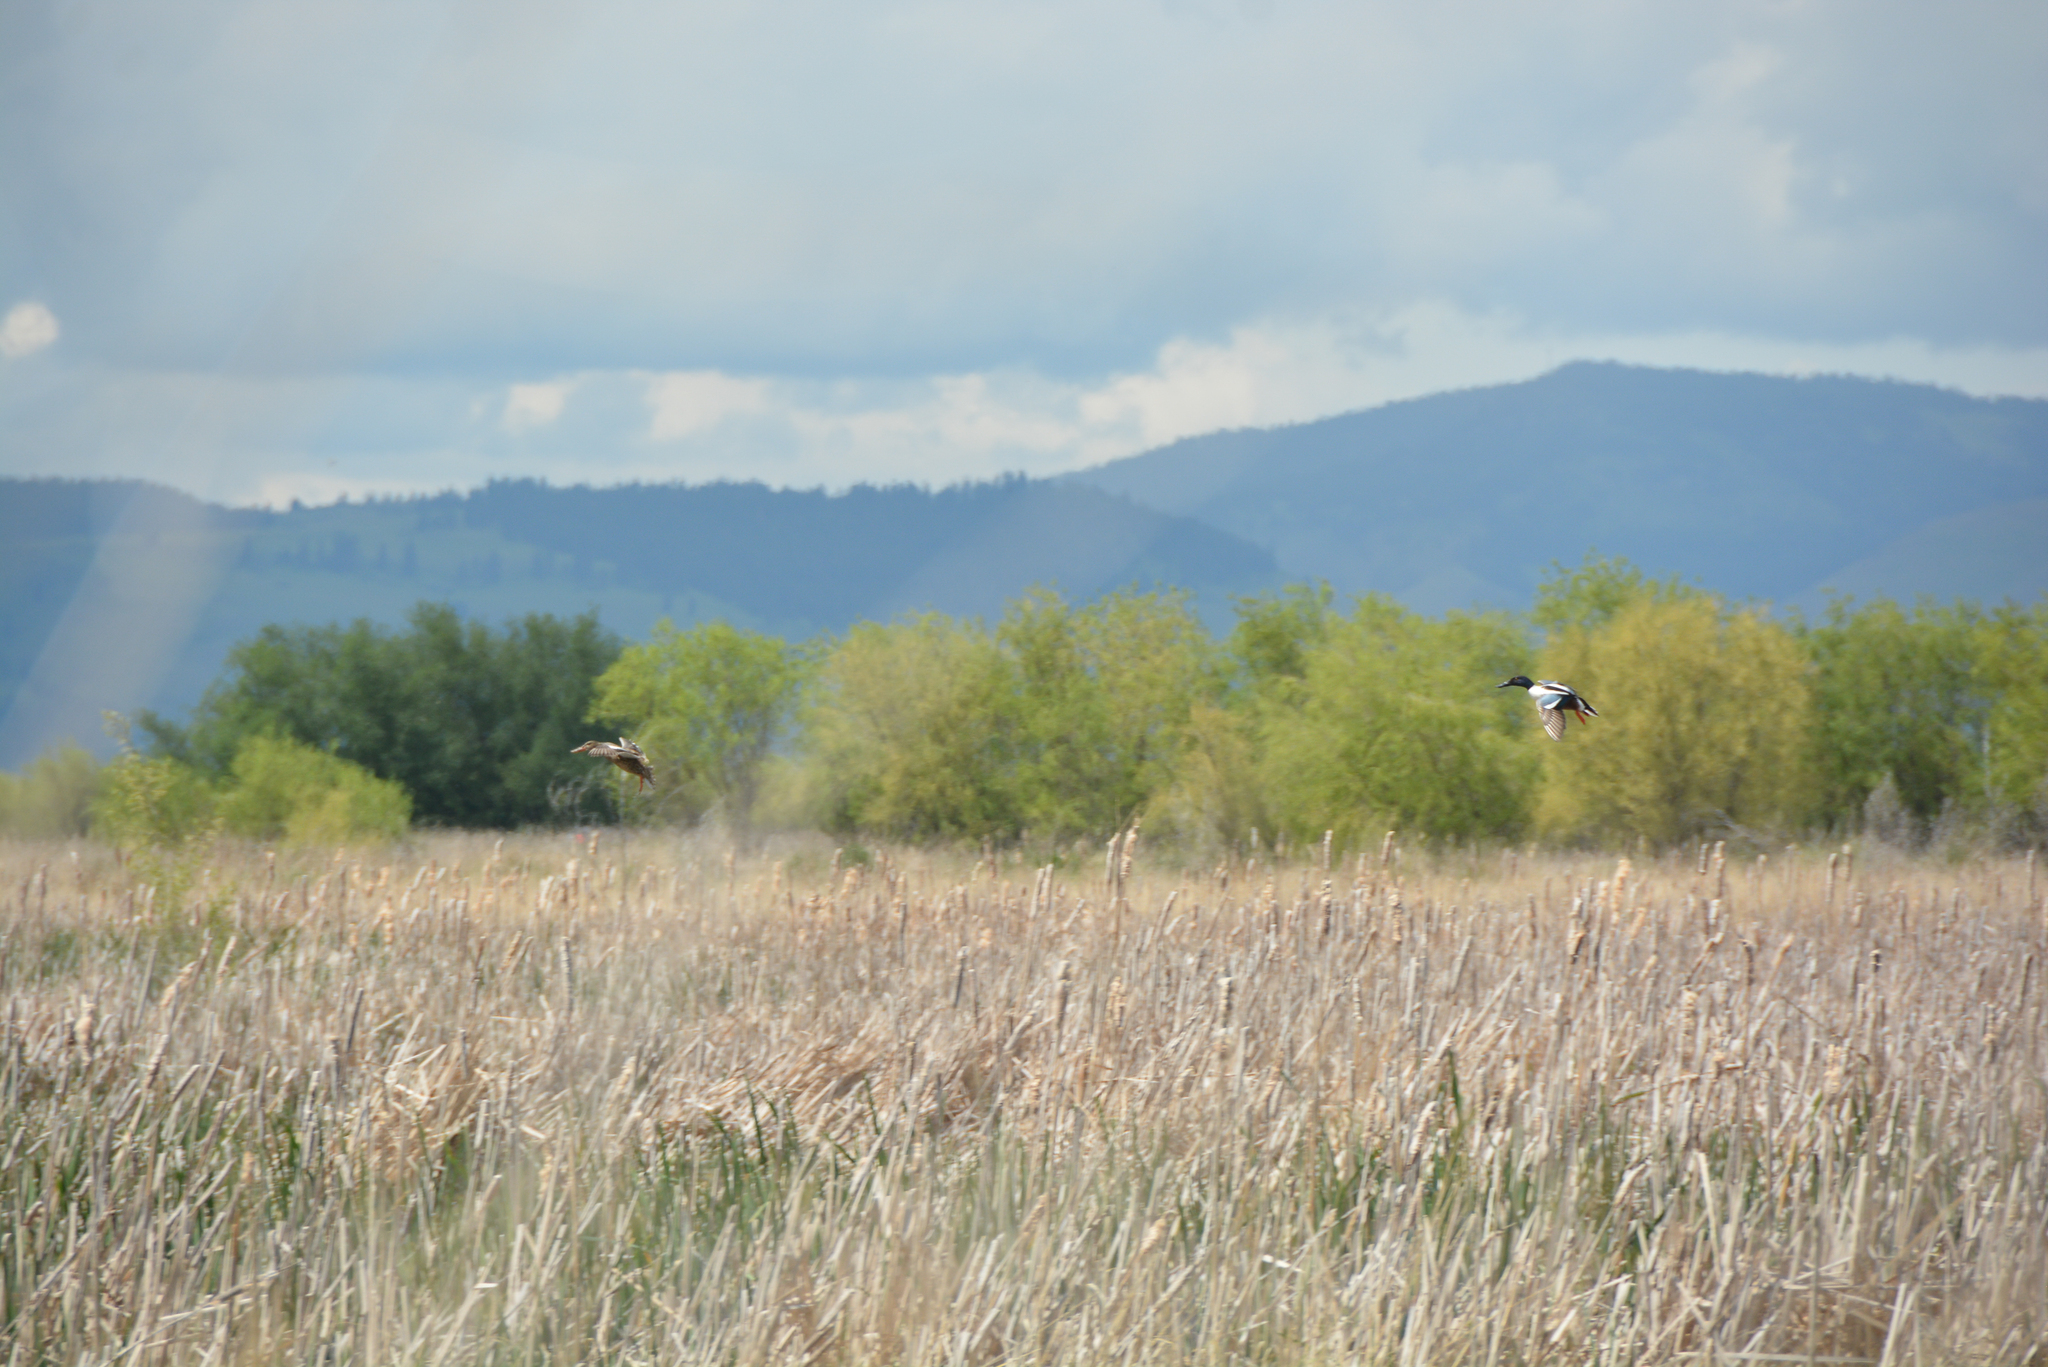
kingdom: Animalia
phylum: Chordata
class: Aves
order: Anseriformes
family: Anatidae
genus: Spatula
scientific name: Spatula clypeata
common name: Northern shoveler
